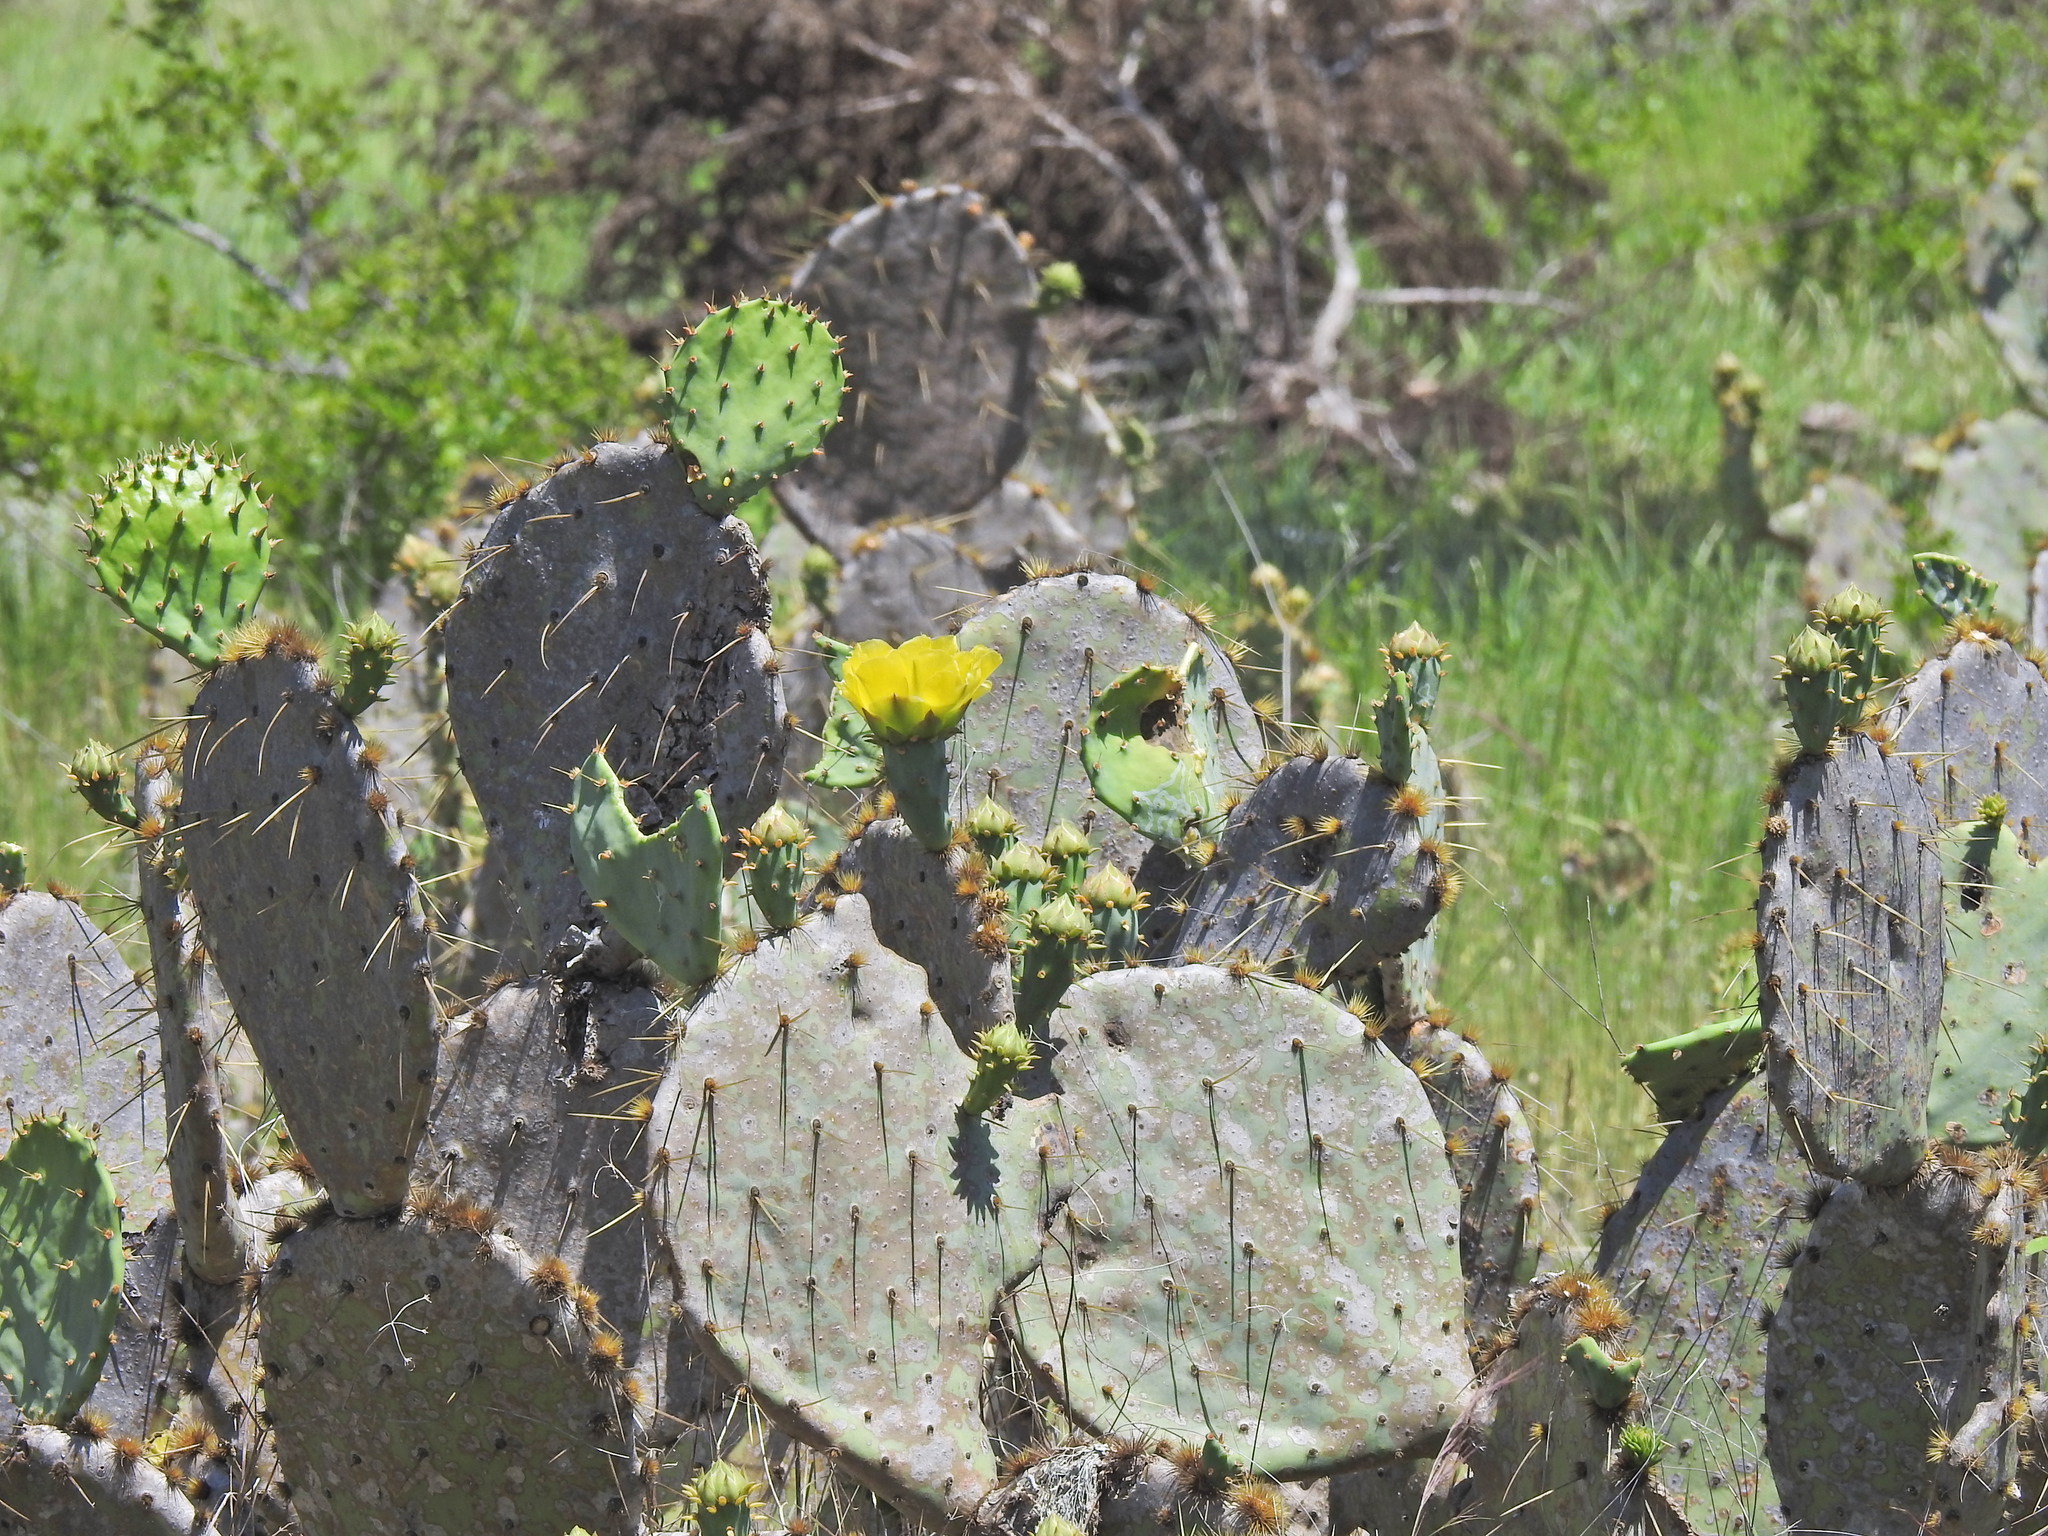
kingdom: Plantae
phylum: Tracheophyta
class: Magnoliopsida
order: Caryophyllales
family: Cactaceae
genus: Opuntia
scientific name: Opuntia engelmannii
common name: Cactus-apple
